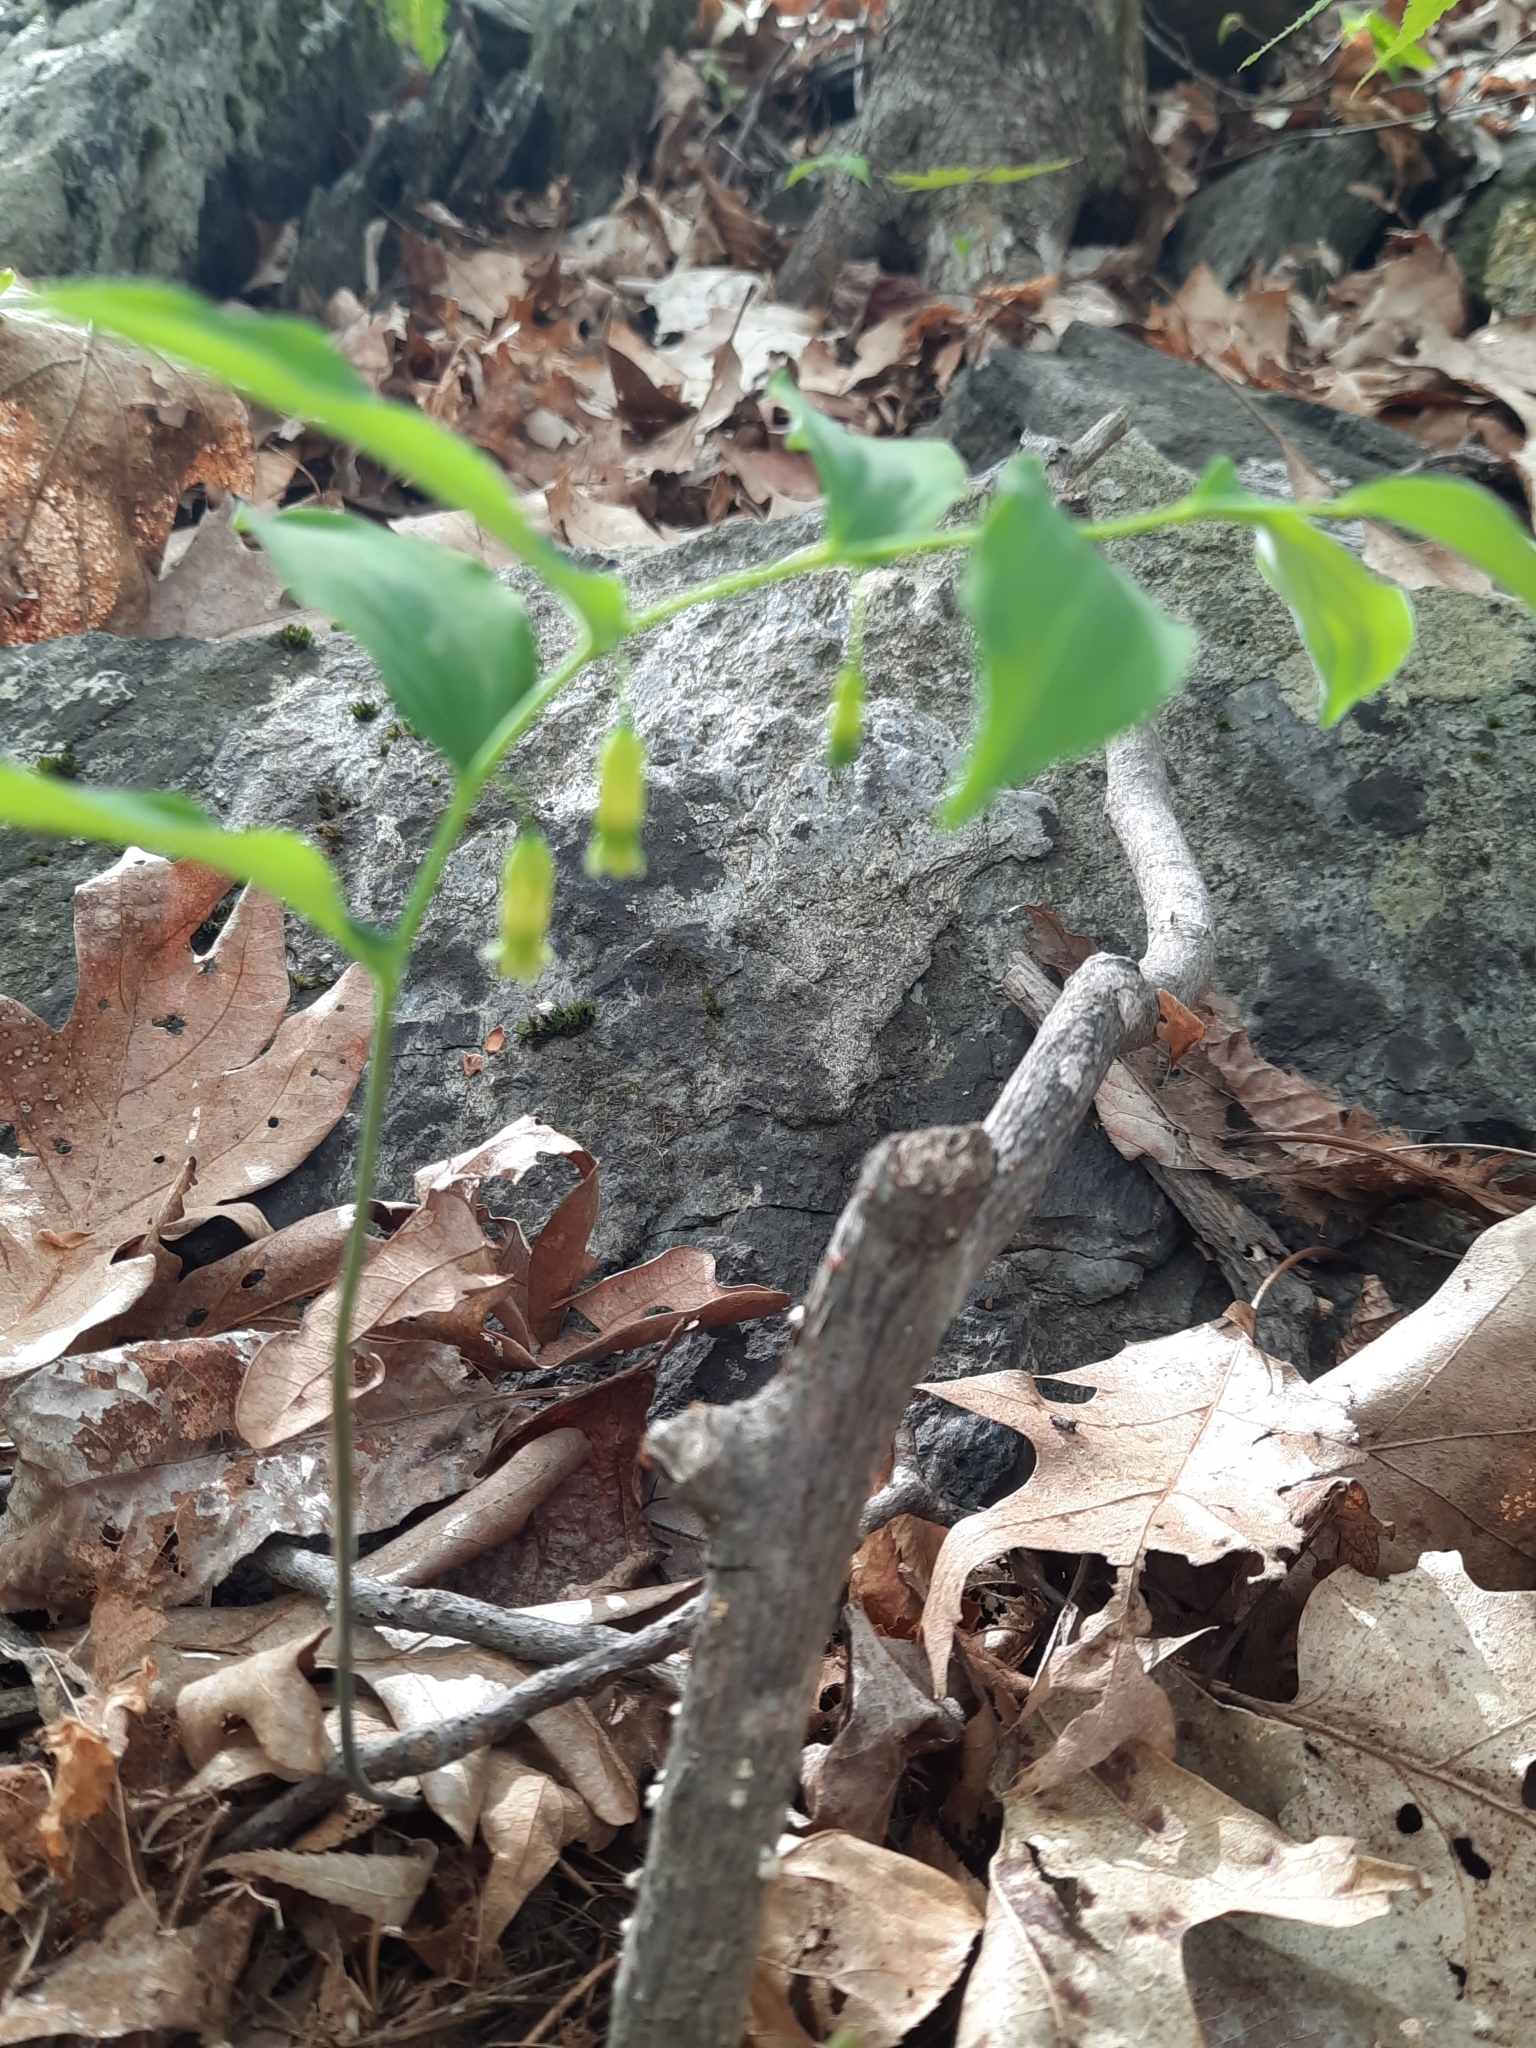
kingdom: Plantae
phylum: Tracheophyta
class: Liliopsida
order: Asparagales
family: Asparagaceae
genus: Polygonatum
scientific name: Polygonatum pubescens
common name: Downy solomon's seal
